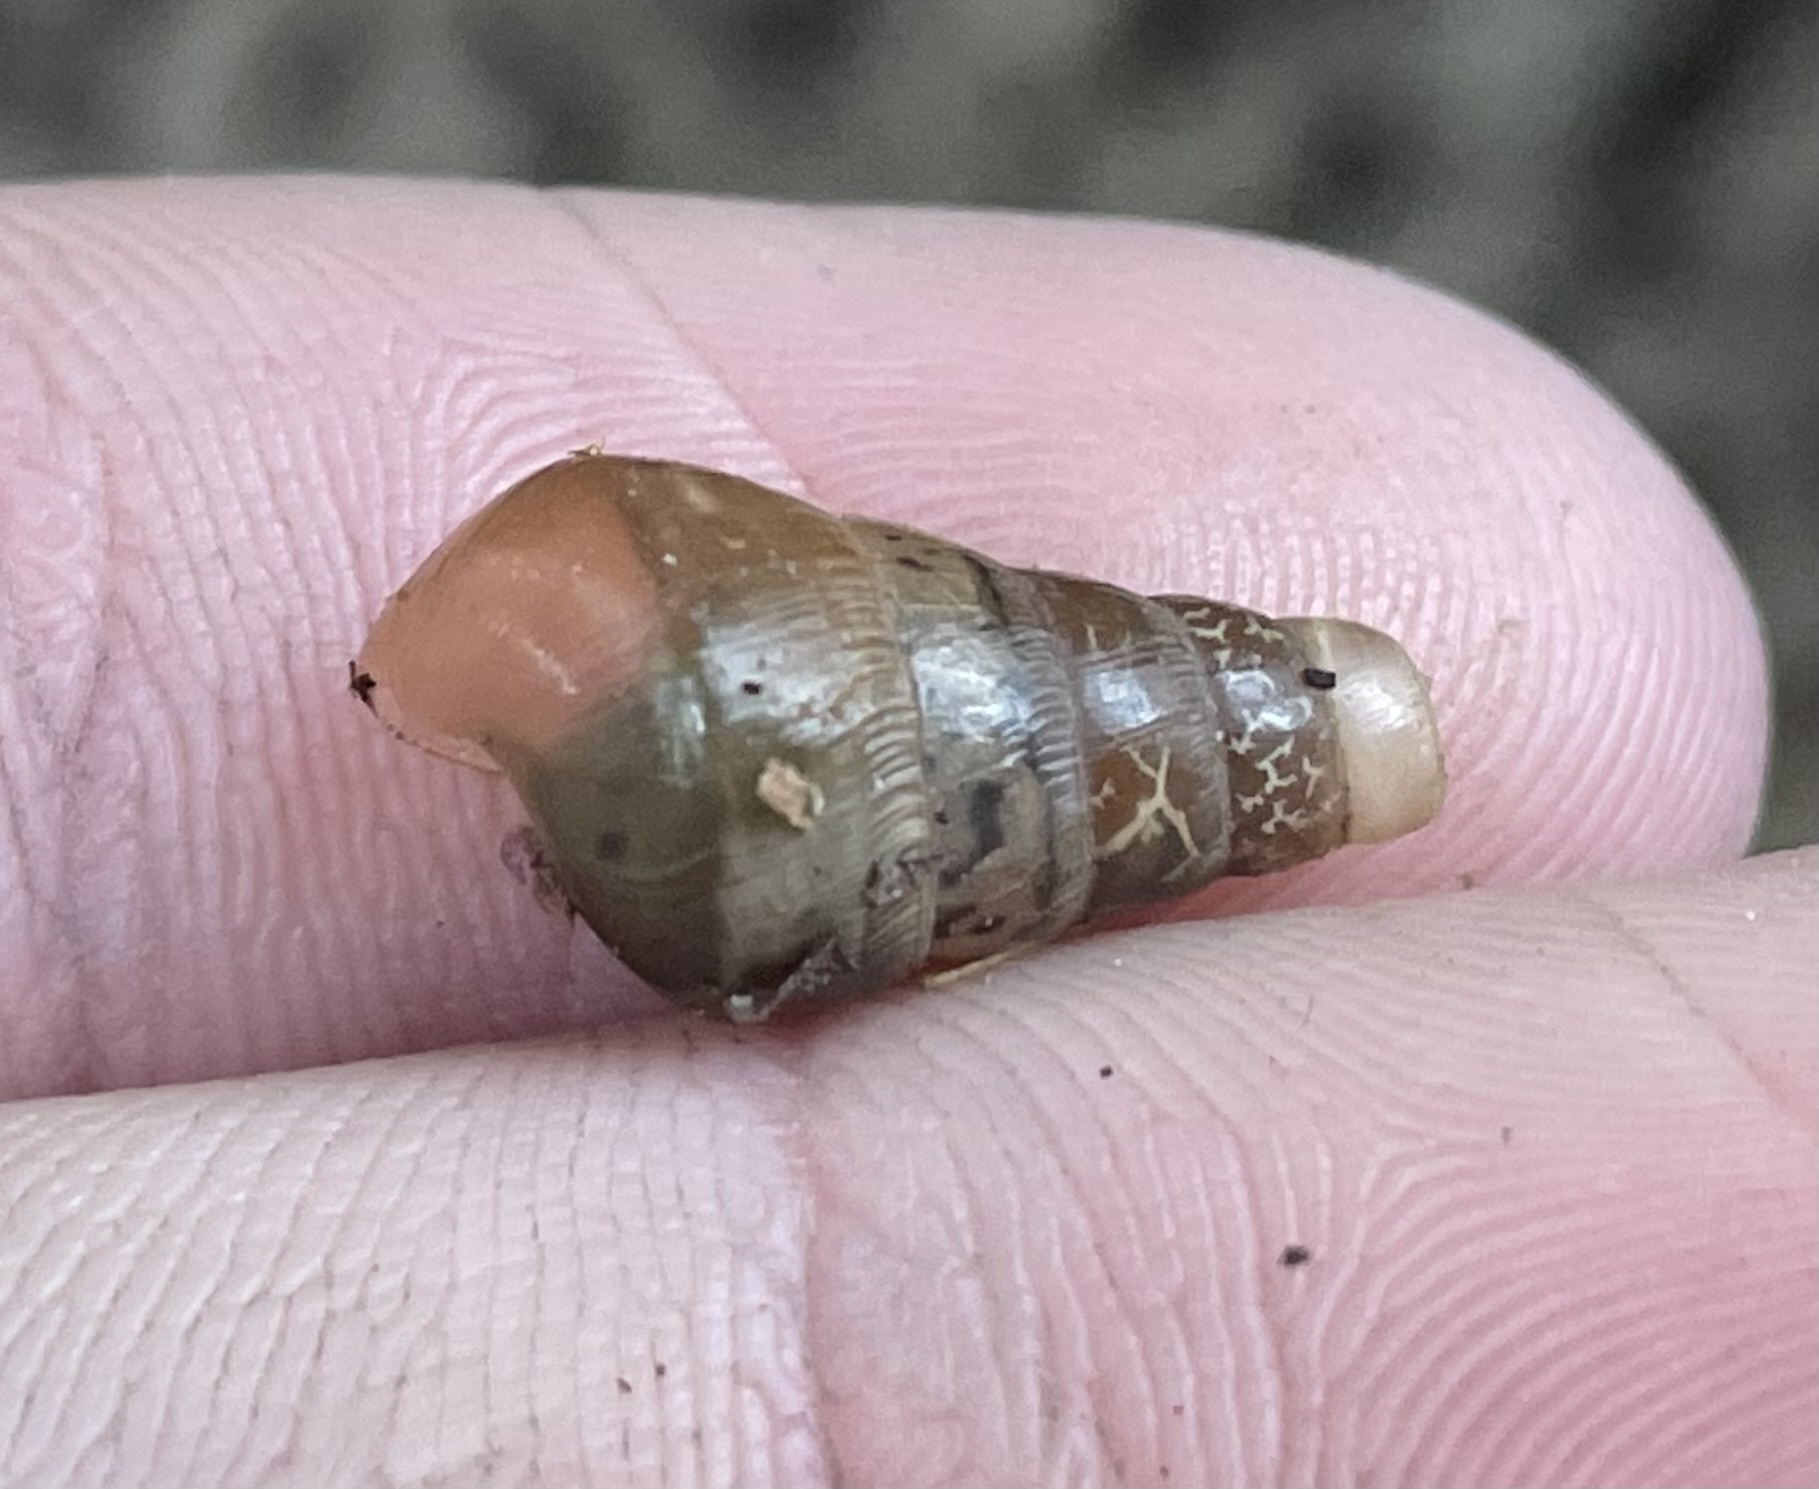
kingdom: Animalia
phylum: Mollusca
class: Gastropoda
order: Stylommatophora
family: Achatinidae
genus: Rumina
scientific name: Rumina decollata
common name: Decollate snail
